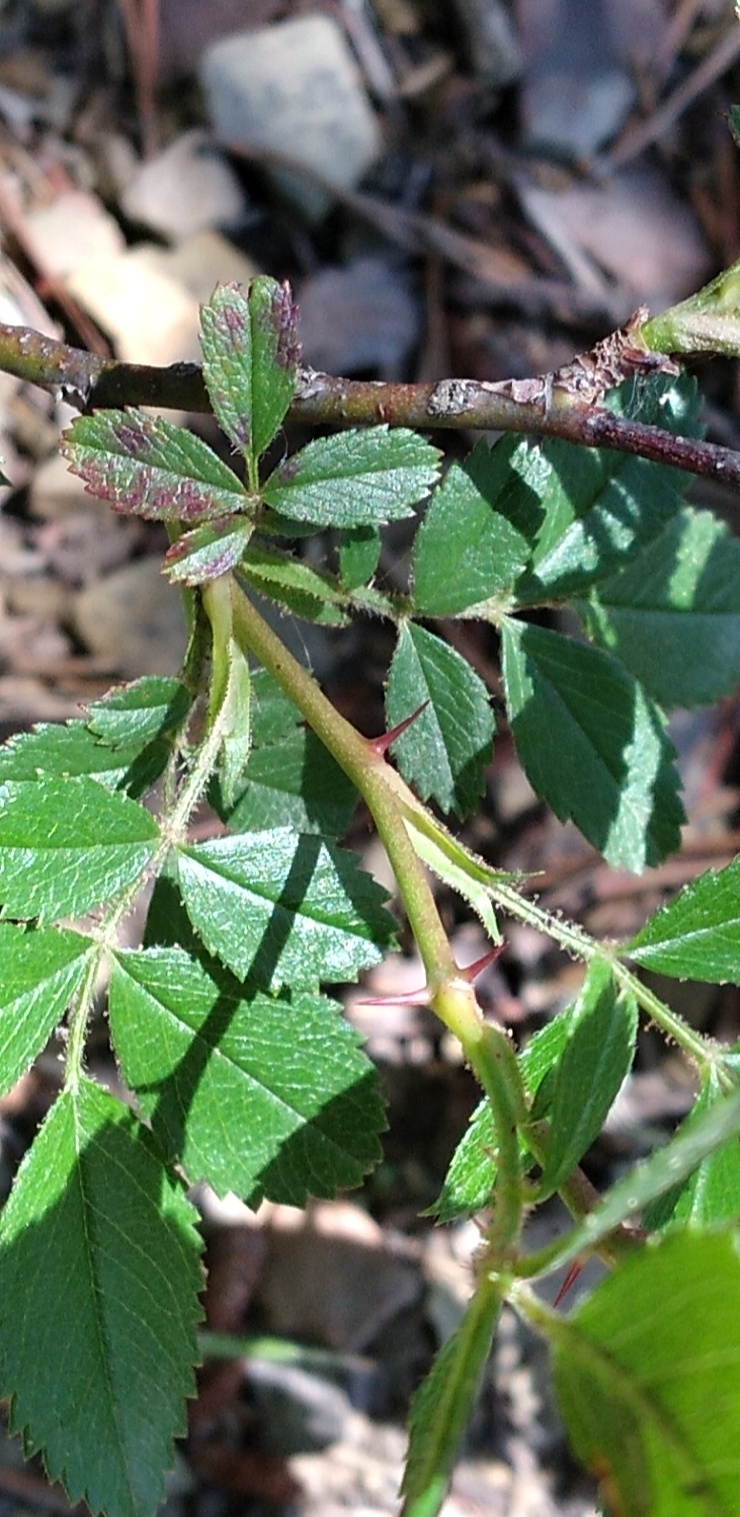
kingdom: Plantae
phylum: Tracheophyta
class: Magnoliopsida
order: Rosales
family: Rosaceae
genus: Rosa
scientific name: Rosa carolina
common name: Pasture rose
